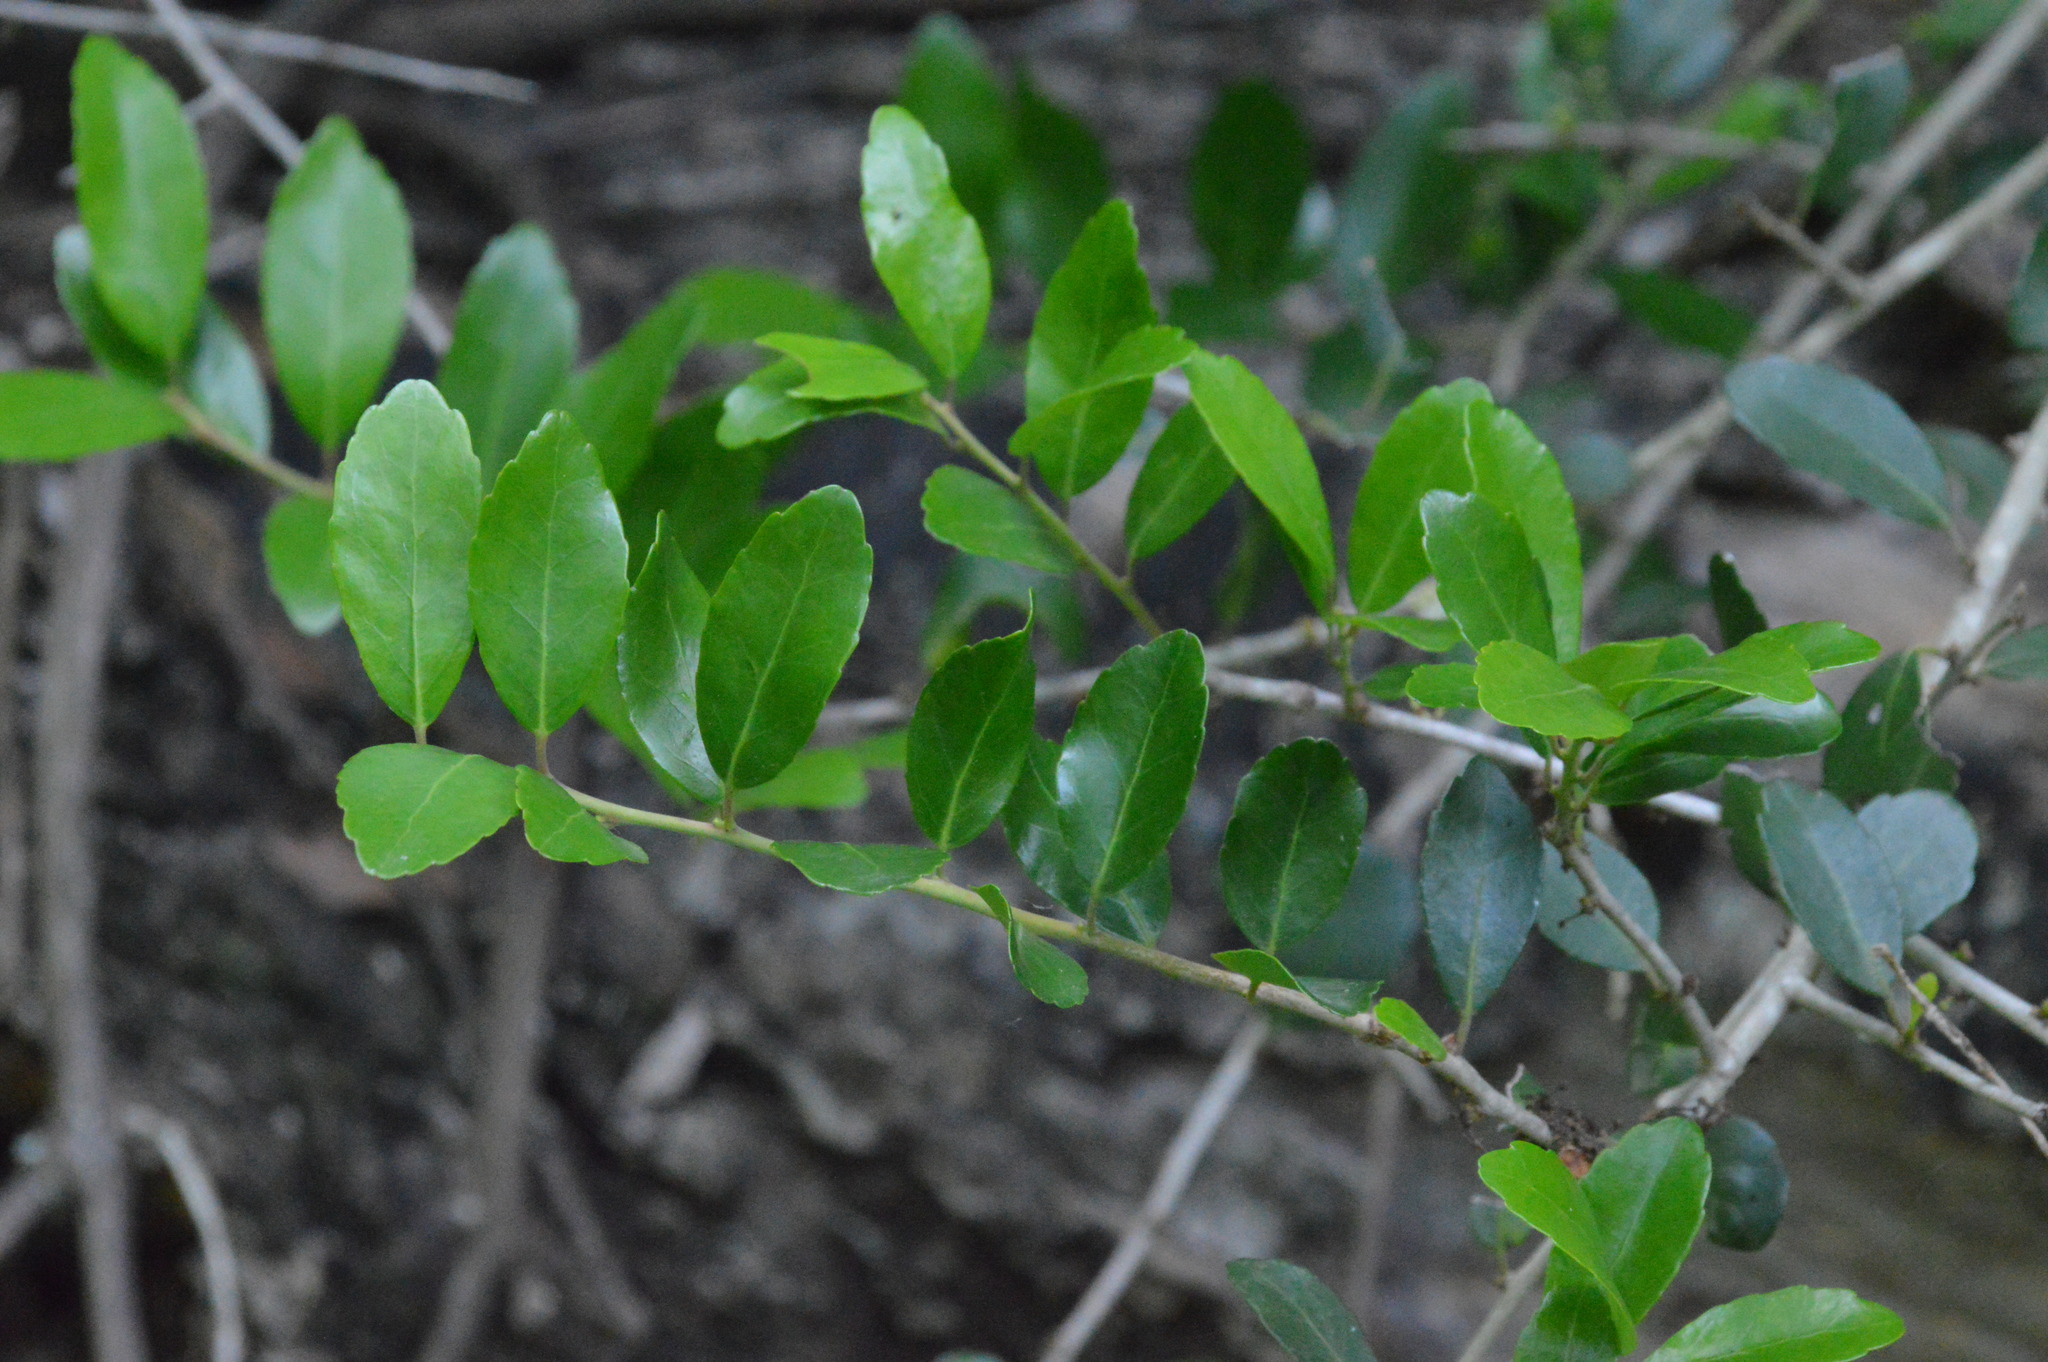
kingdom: Plantae
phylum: Tracheophyta
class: Magnoliopsida
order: Aquifoliales
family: Aquifoliaceae
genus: Ilex
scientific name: Ilex vomitoria
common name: Yaupon holly
